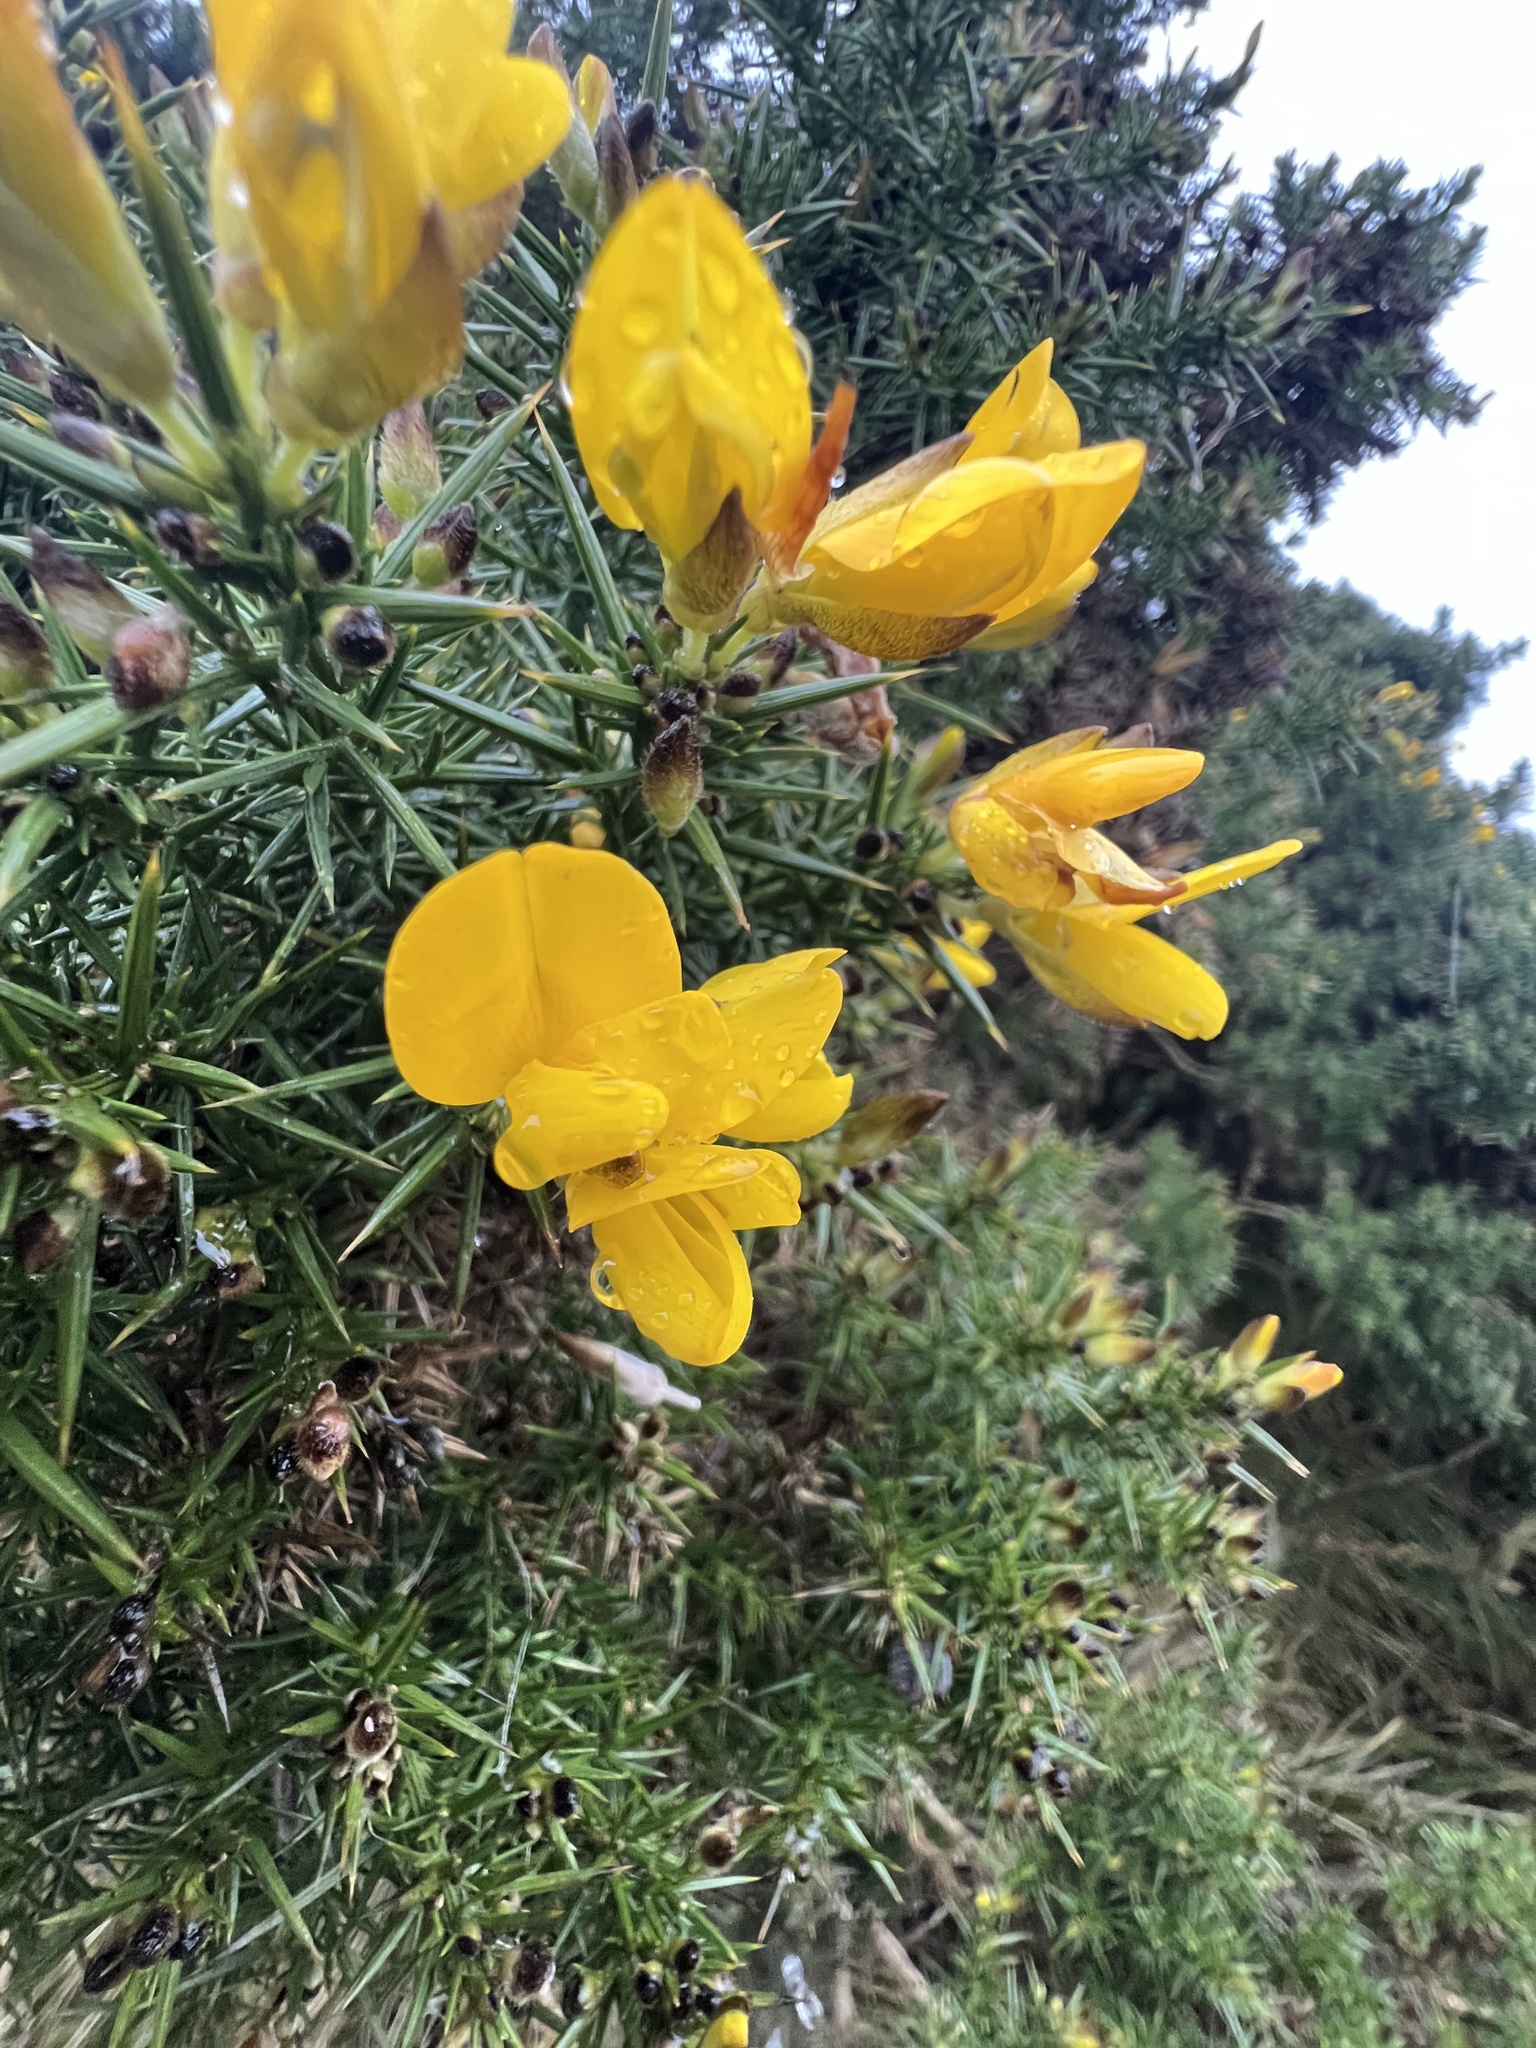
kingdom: Plantae
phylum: Tracheophyta
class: Magnoliopsida
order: Fabales
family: Fabaceae
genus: Ulex
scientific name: Ulex europaeus
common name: Common gorse
